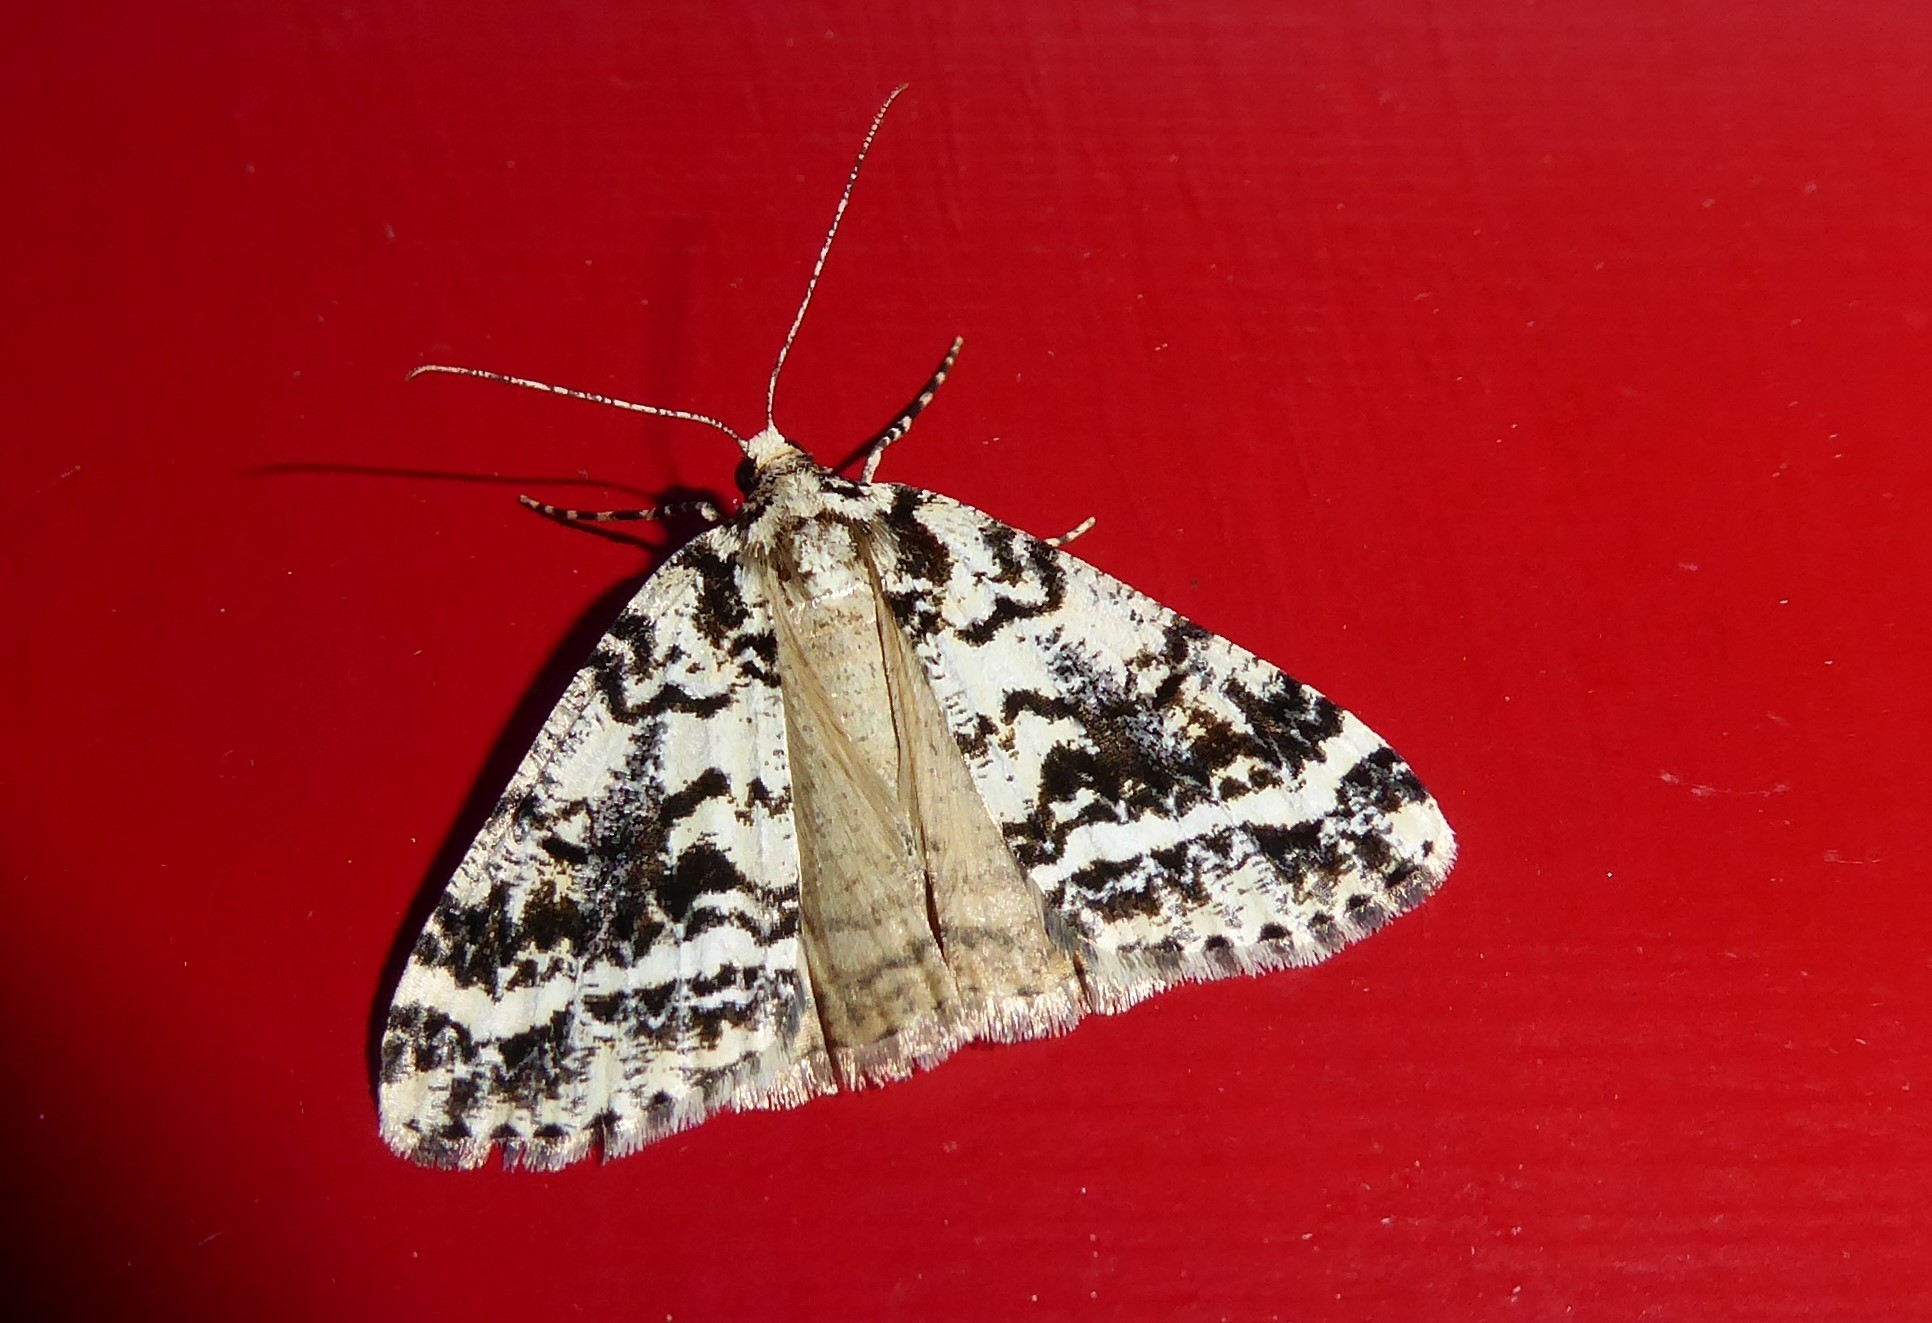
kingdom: Animalia
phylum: Arthropoda
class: Insecta
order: Lepidoptera
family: Geometridae
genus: Pseudocoremia
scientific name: Pseudocoremia leucelaea
